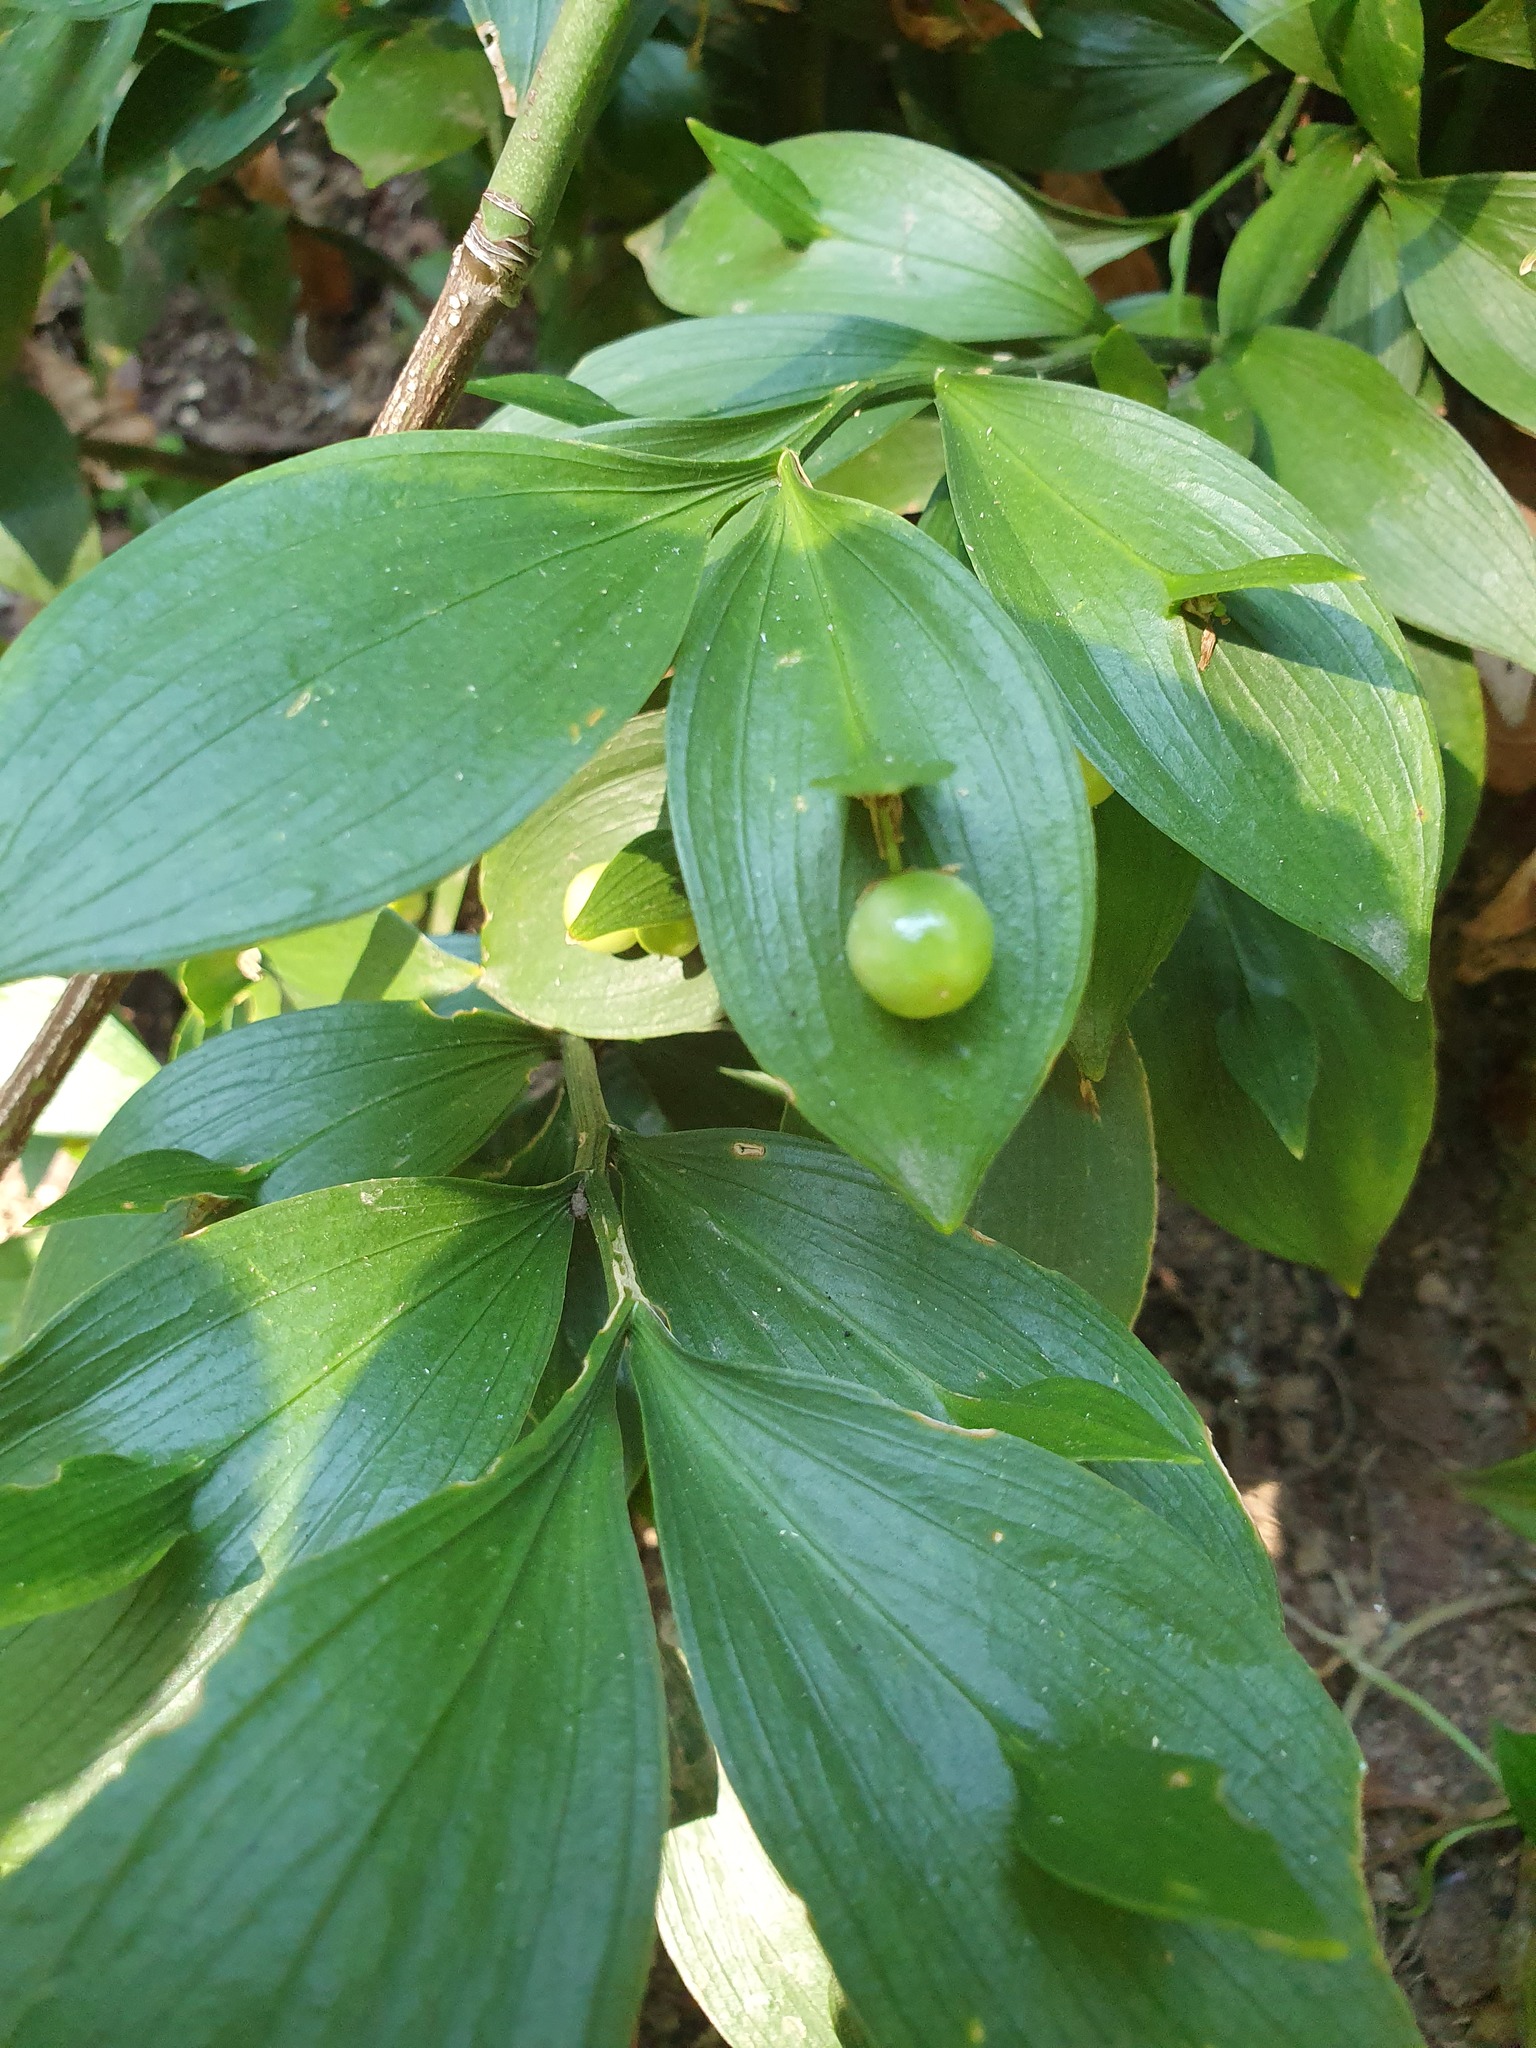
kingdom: Plantae
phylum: Tracheophyta
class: Liliopsida
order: Asparagales
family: Asparagaceae
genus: Ruscus
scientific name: Ruscus hypoglossum
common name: Spineless butcher's-broom
